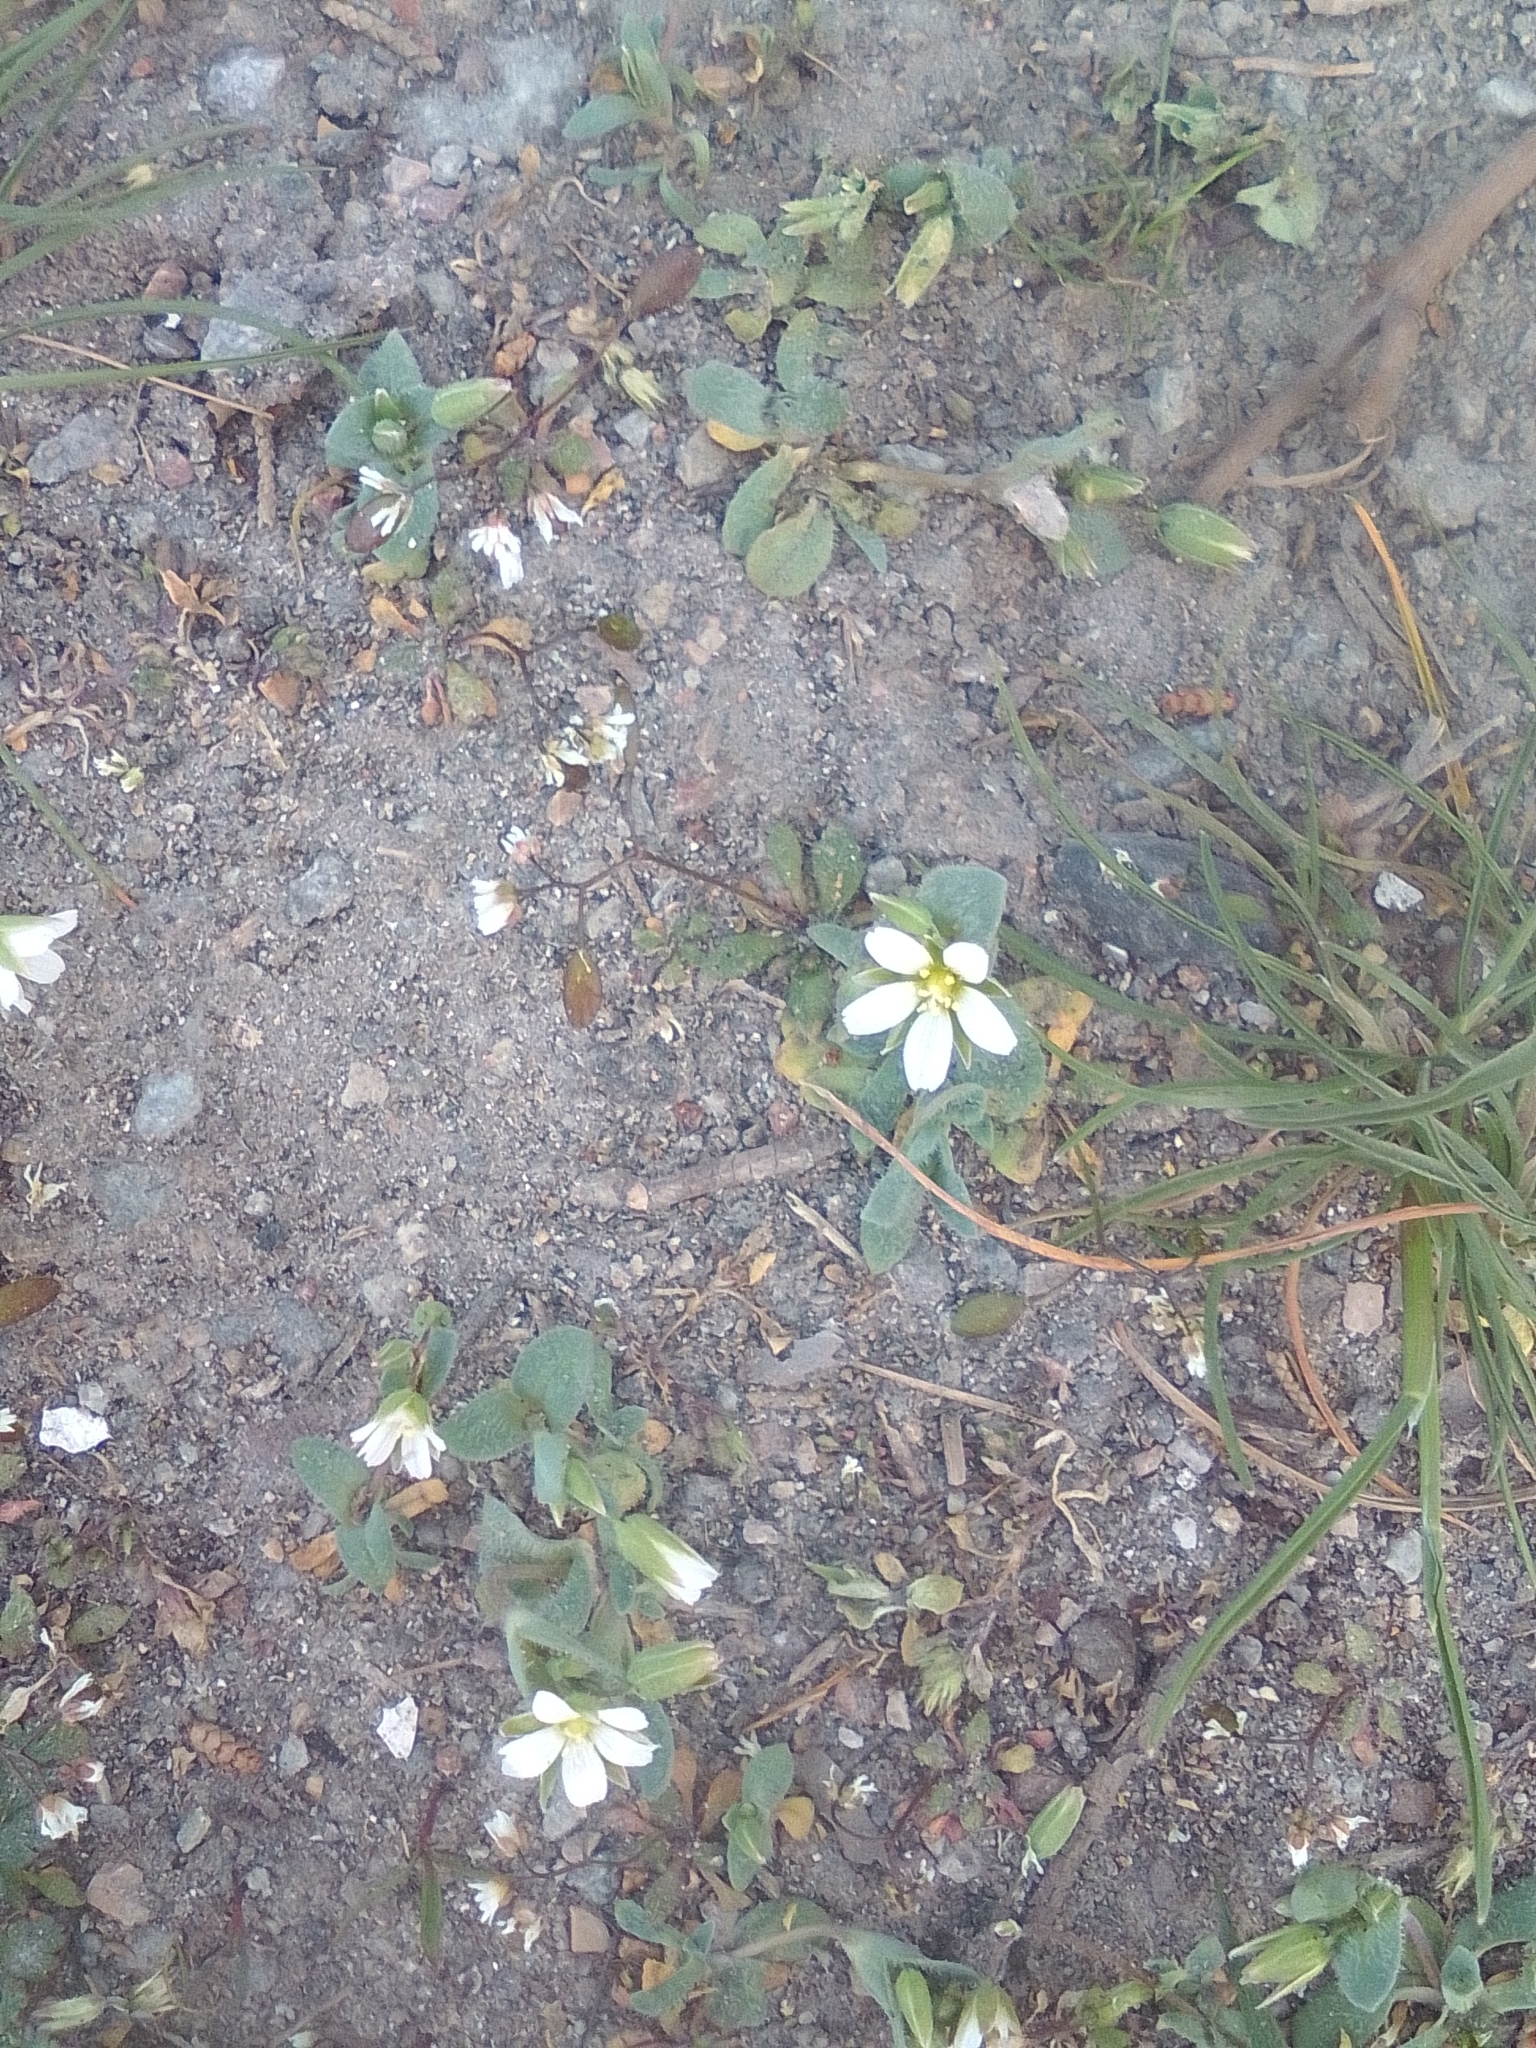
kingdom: Plantae
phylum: Tracheophyta
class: Magnoliopsida
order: Caryophyllales
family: Caryophyllaceae
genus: Holosteum
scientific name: Holosteum umbellatum
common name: Jagged chickweed
